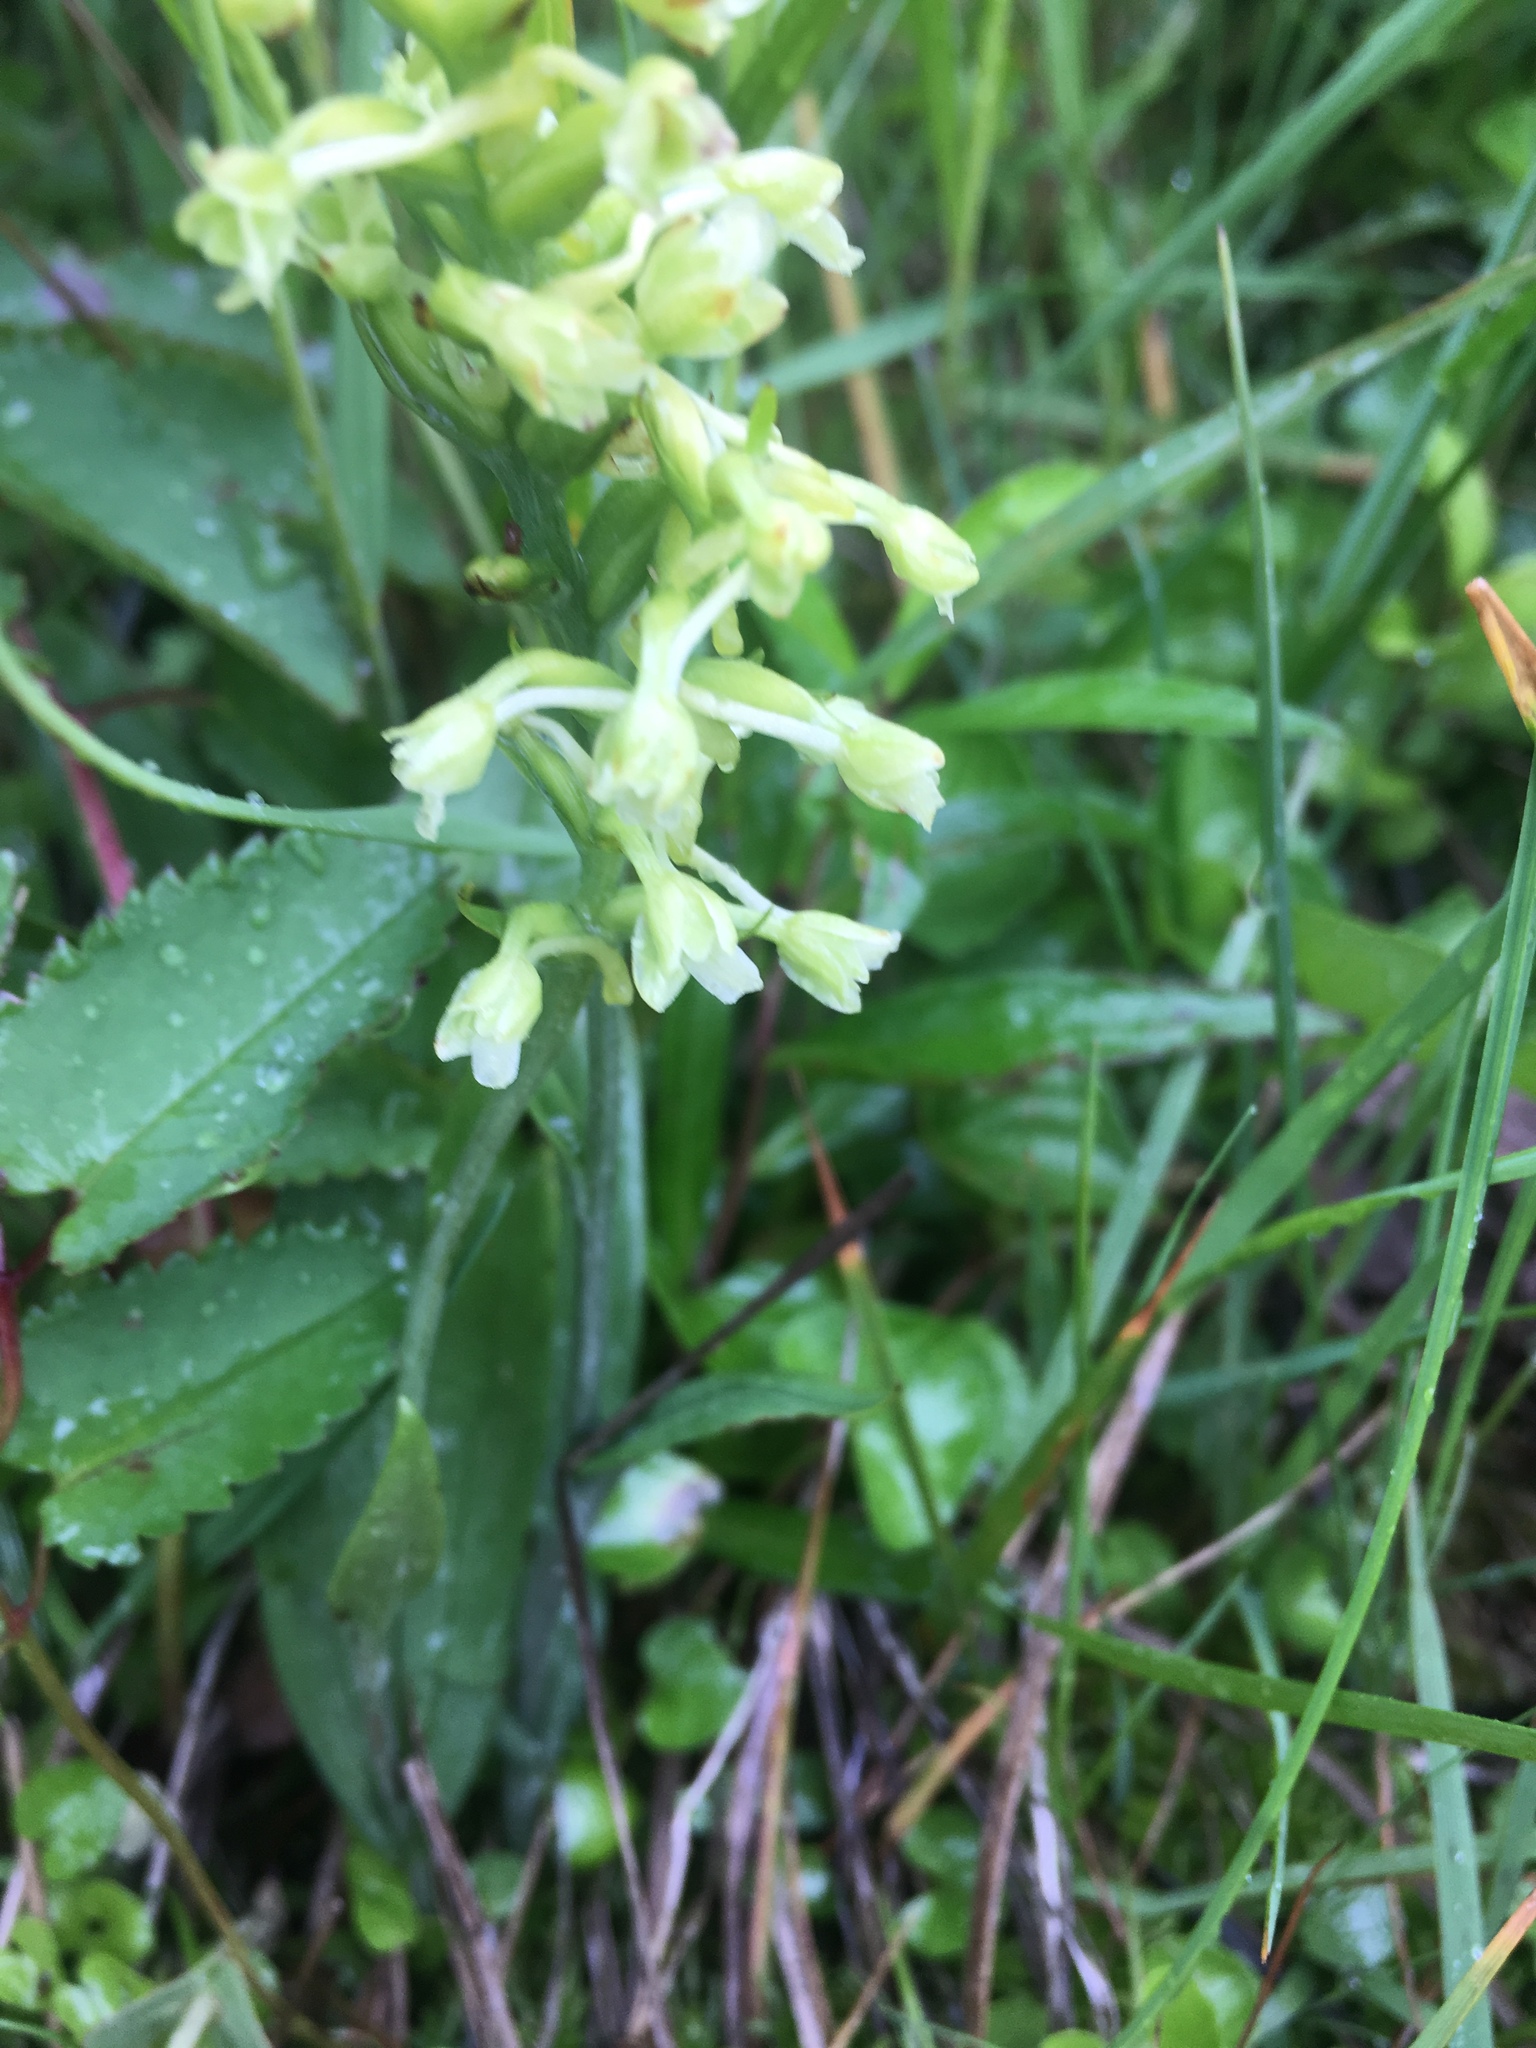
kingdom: Plantae
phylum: Tracheophyta
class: Liliopsida
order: Asparagales
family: Orchidaceae
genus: Platanthera
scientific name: Platanthera clavellata
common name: Club-spur orchid
